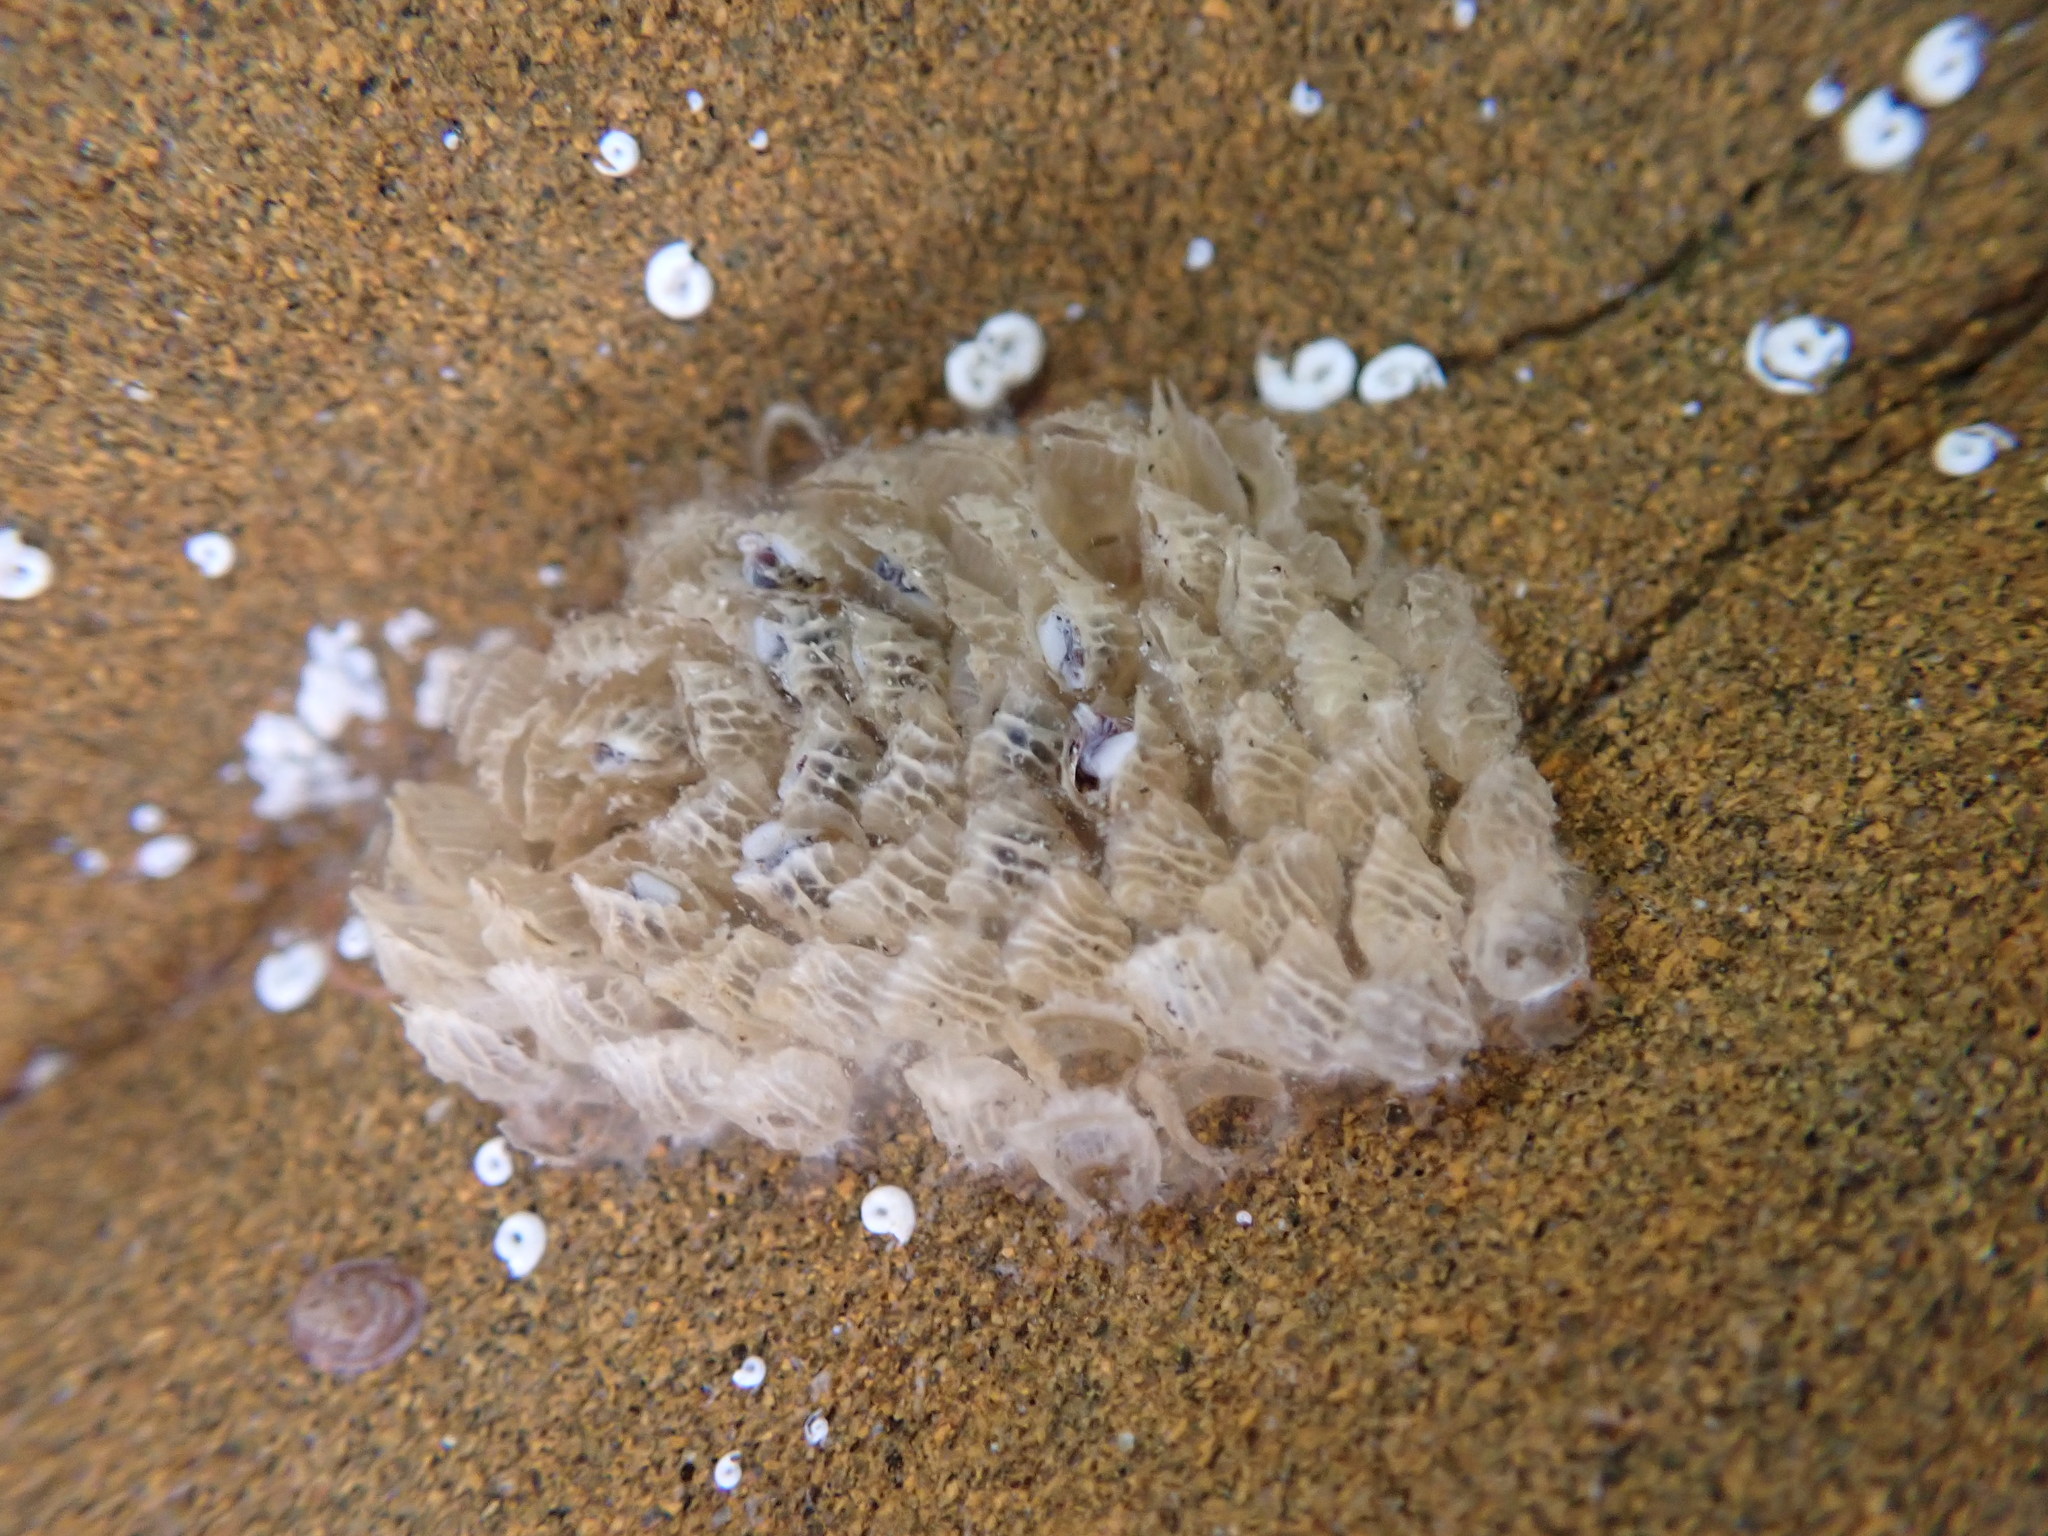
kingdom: Animalia
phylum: Mollusca
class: Gastropoda
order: Neogastropoda
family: Cominellidae
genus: Cominella
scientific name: Cominella virgata
